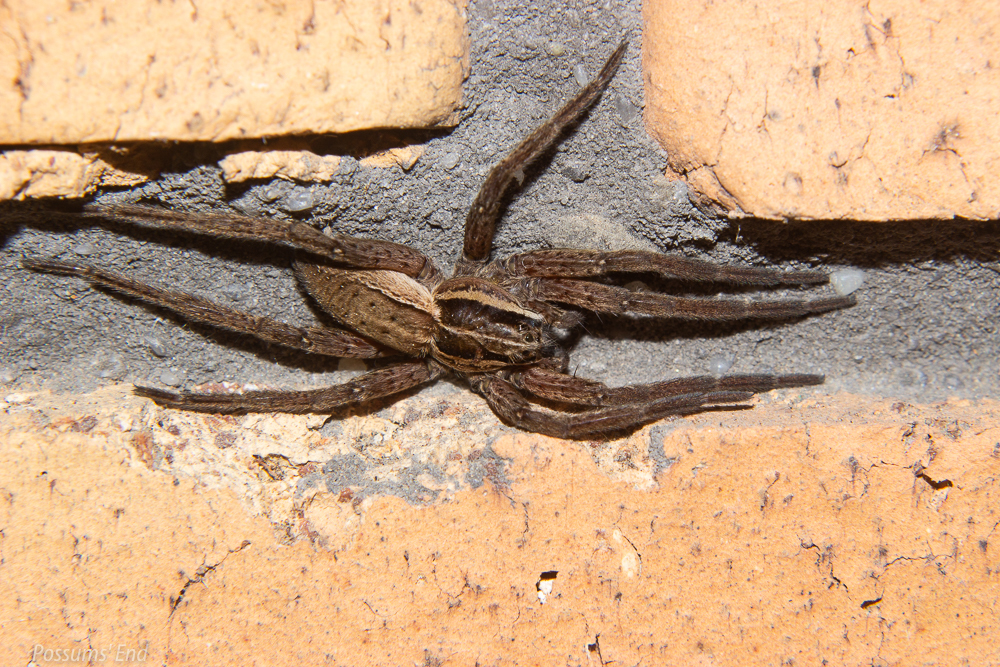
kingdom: Animalia
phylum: Arthropoda
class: Arachnida
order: Araneae
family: Pisauridae
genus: Dolomedes
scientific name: Dolomedes minor
